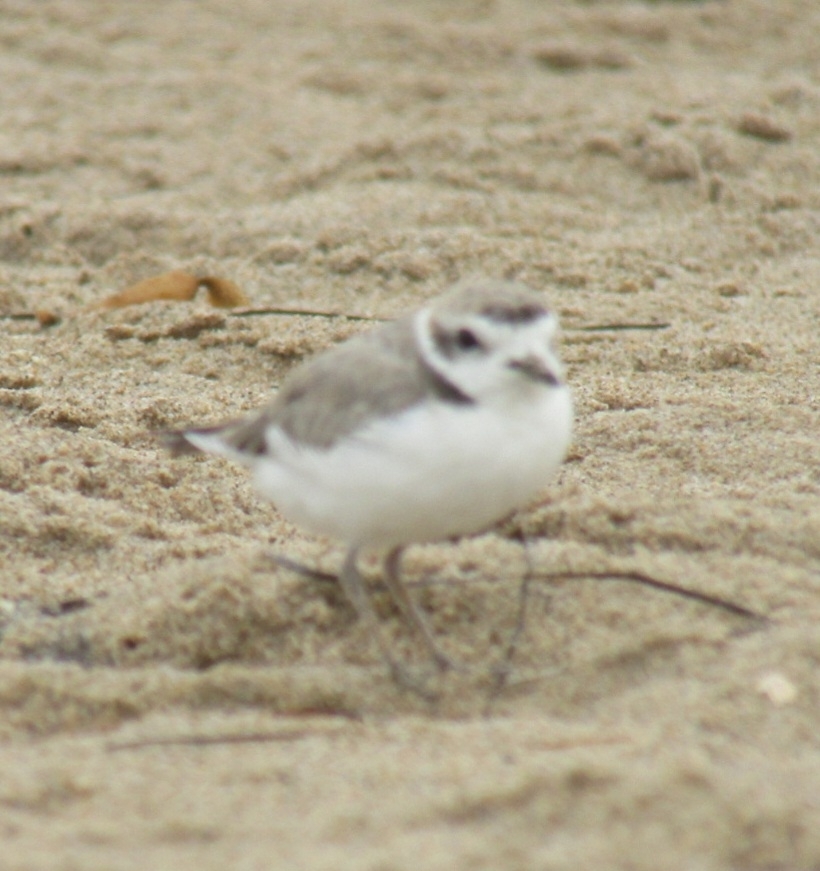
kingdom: Animalia
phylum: Chordata
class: Aves
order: Charadriiformes
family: Charadriidae
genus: Anarhynchus
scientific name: Anarhynchus
